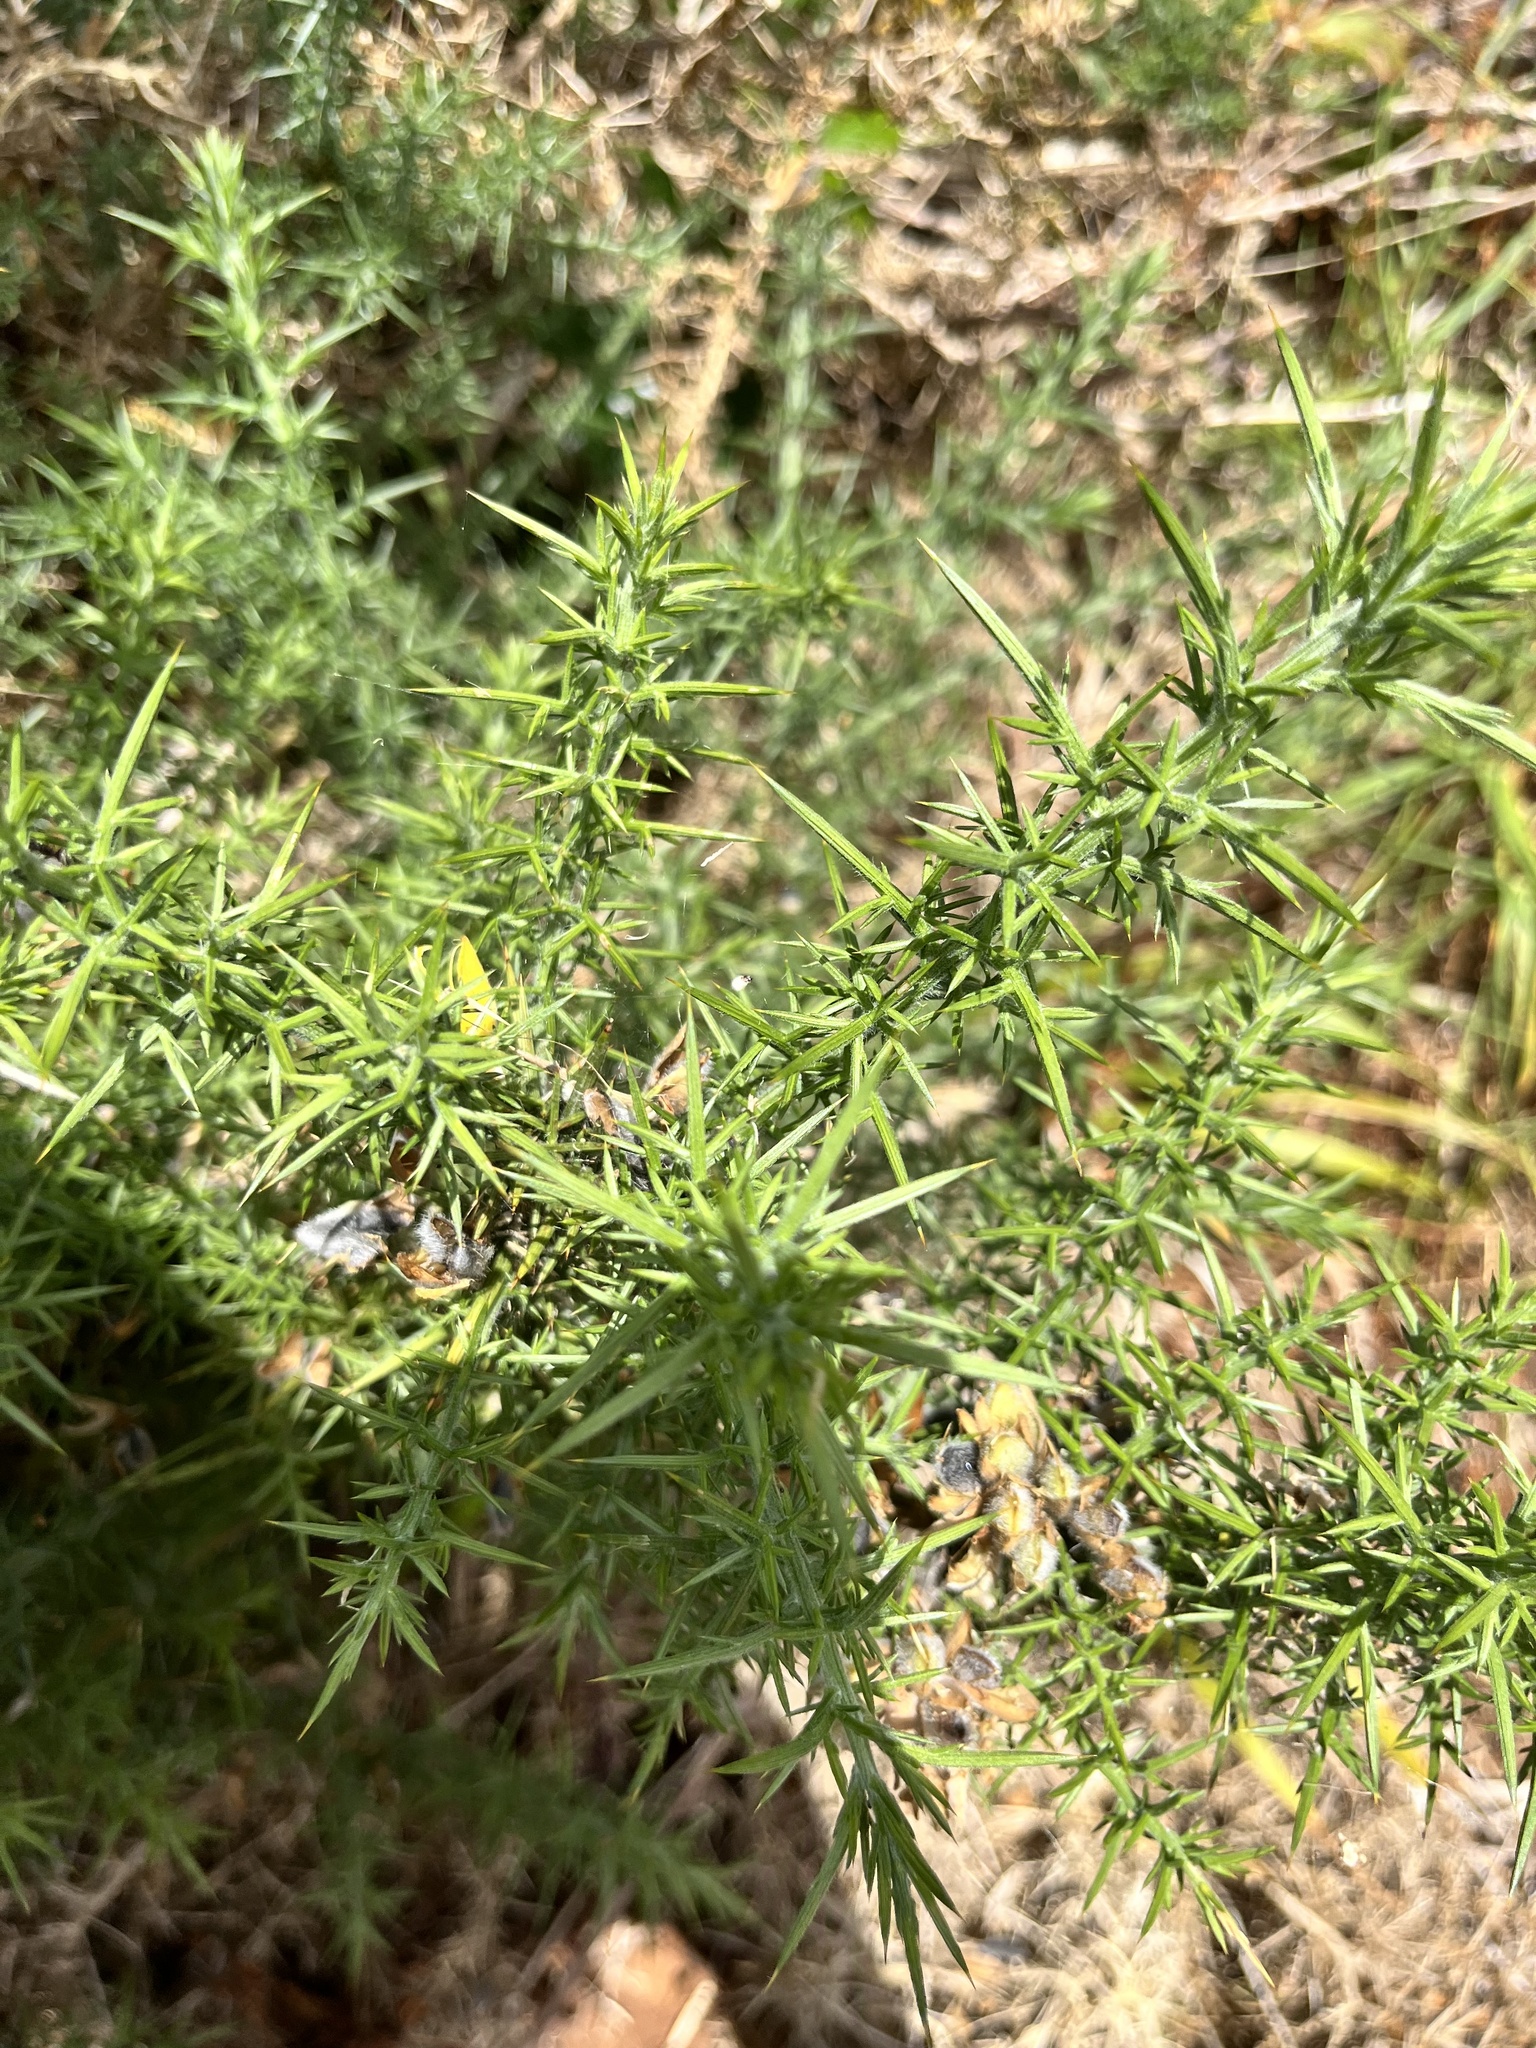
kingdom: Plantae
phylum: Tracheophyta
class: Magnoliopsida
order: Fabales
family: Fabaceae
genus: Ulex
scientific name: Ulex europaeus
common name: Common gorse
